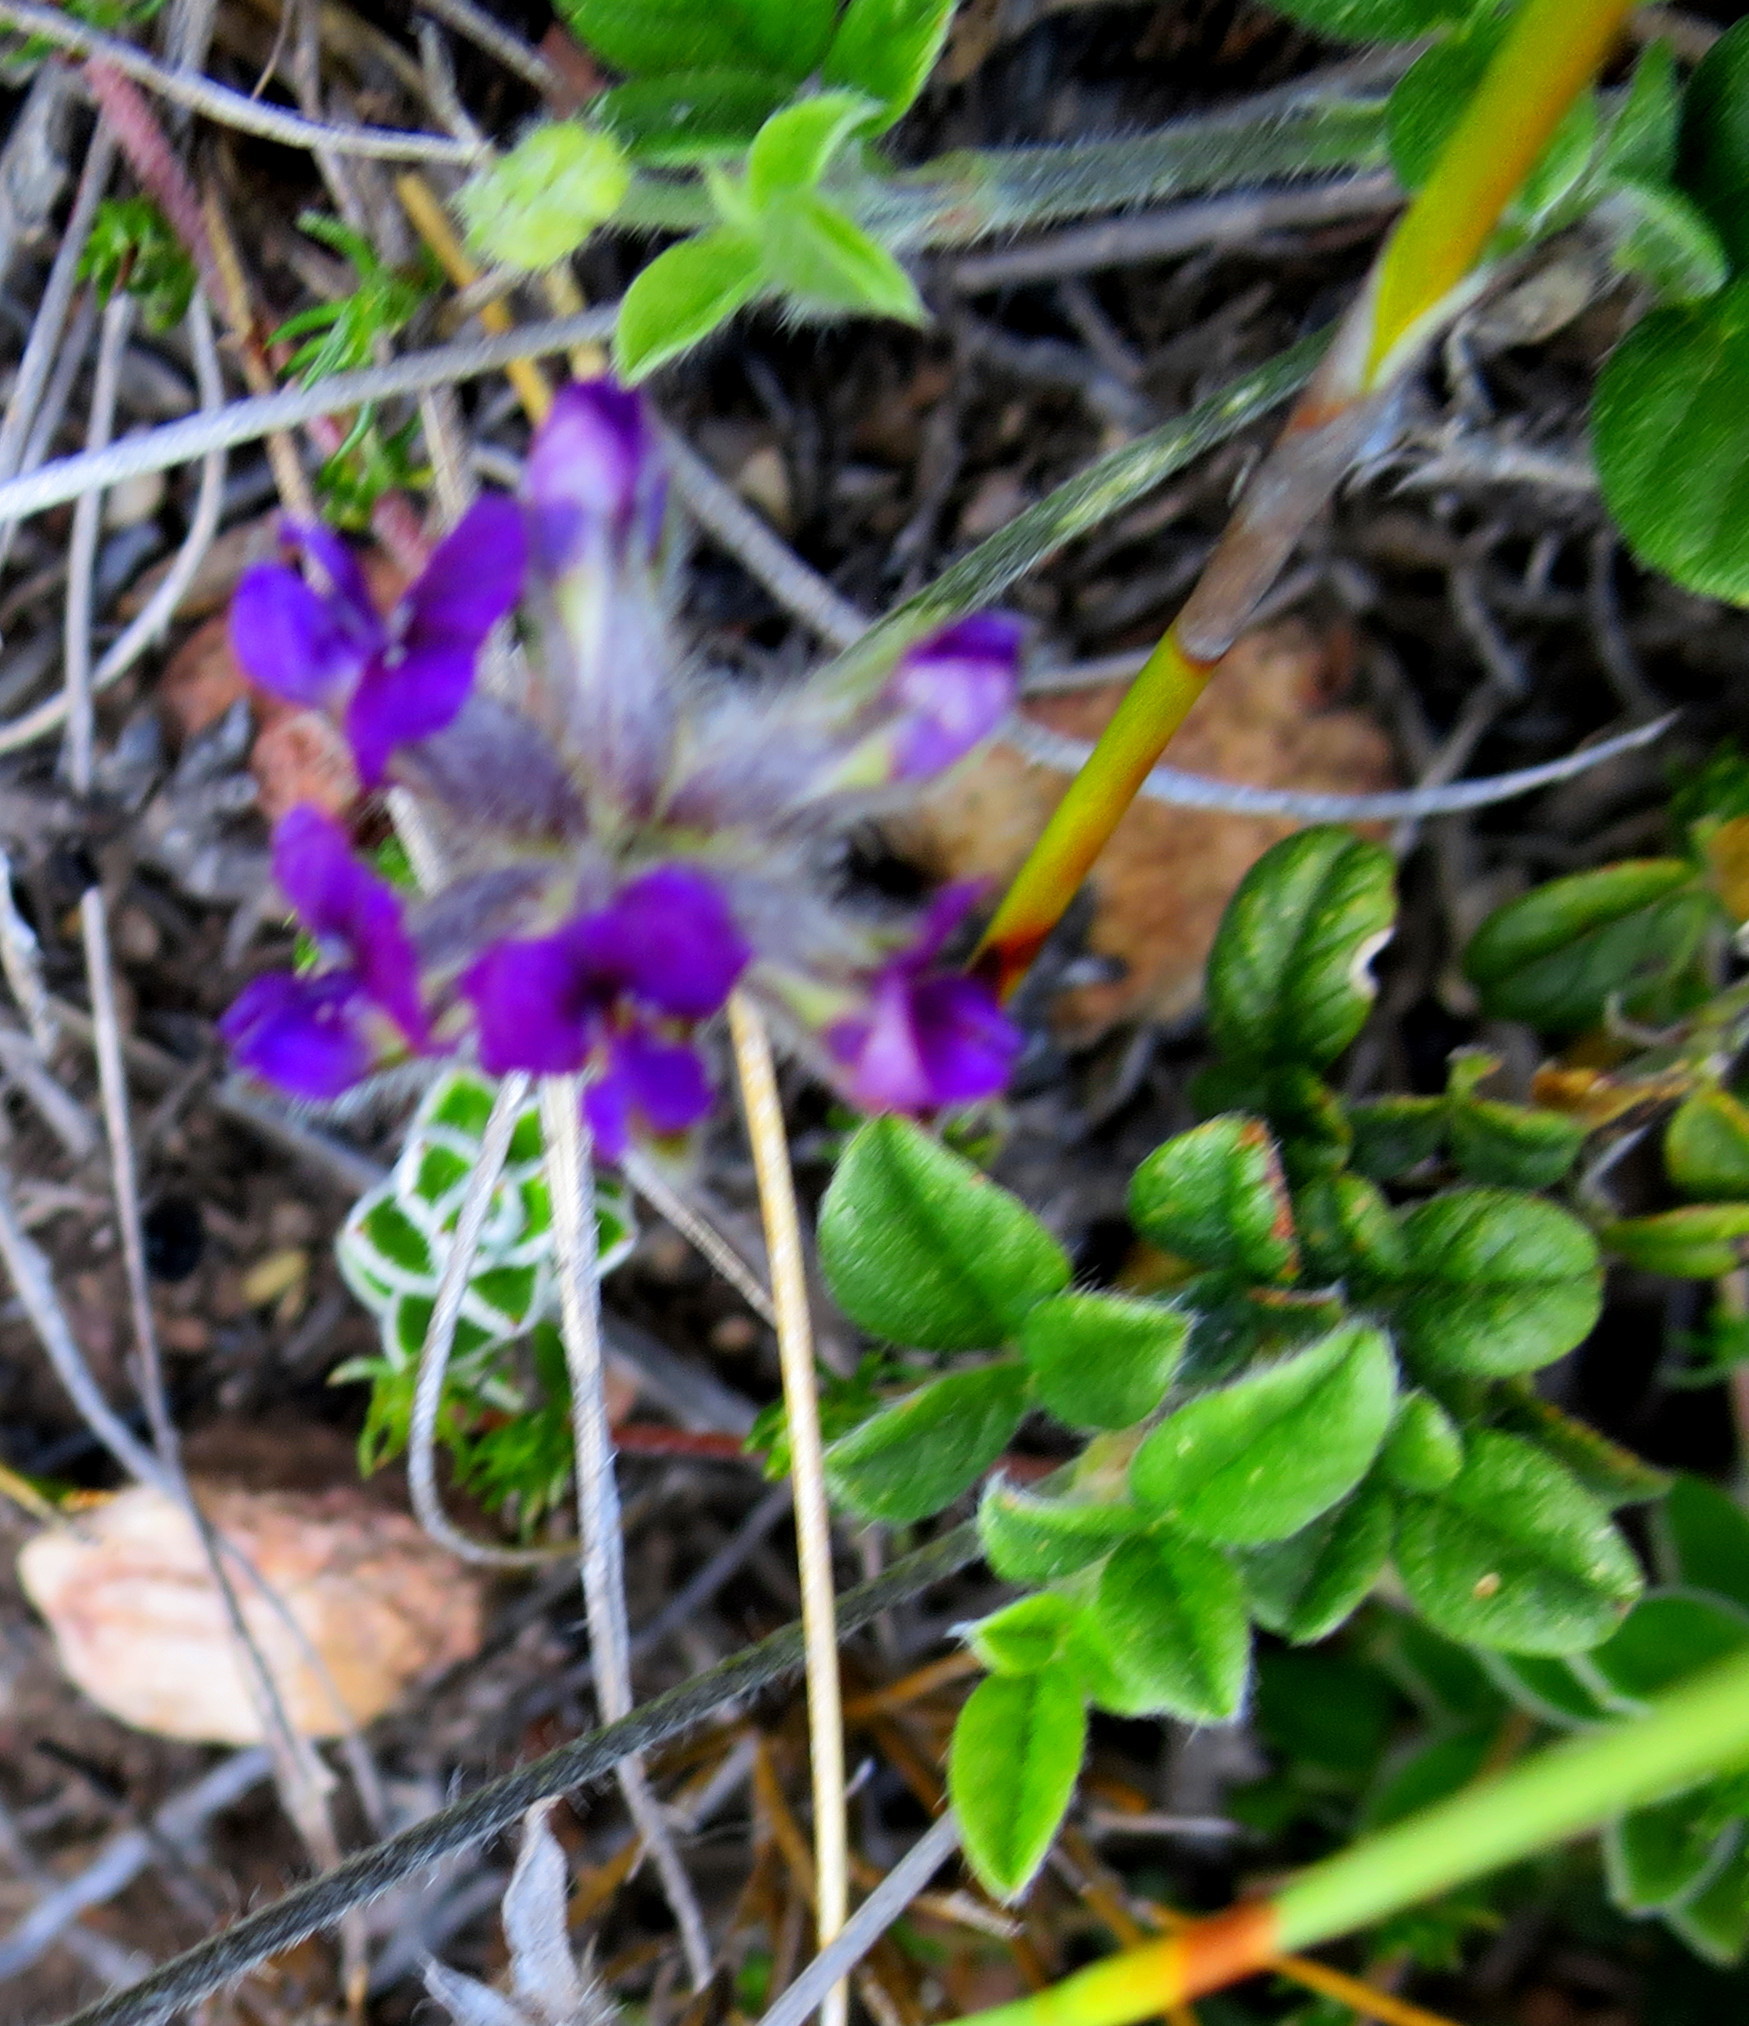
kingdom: Plantae
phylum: Tracheophyta
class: Magnoliopsida
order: Fabales
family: Fabaceae
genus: Psoralea
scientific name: Psoralea swartbergensis
